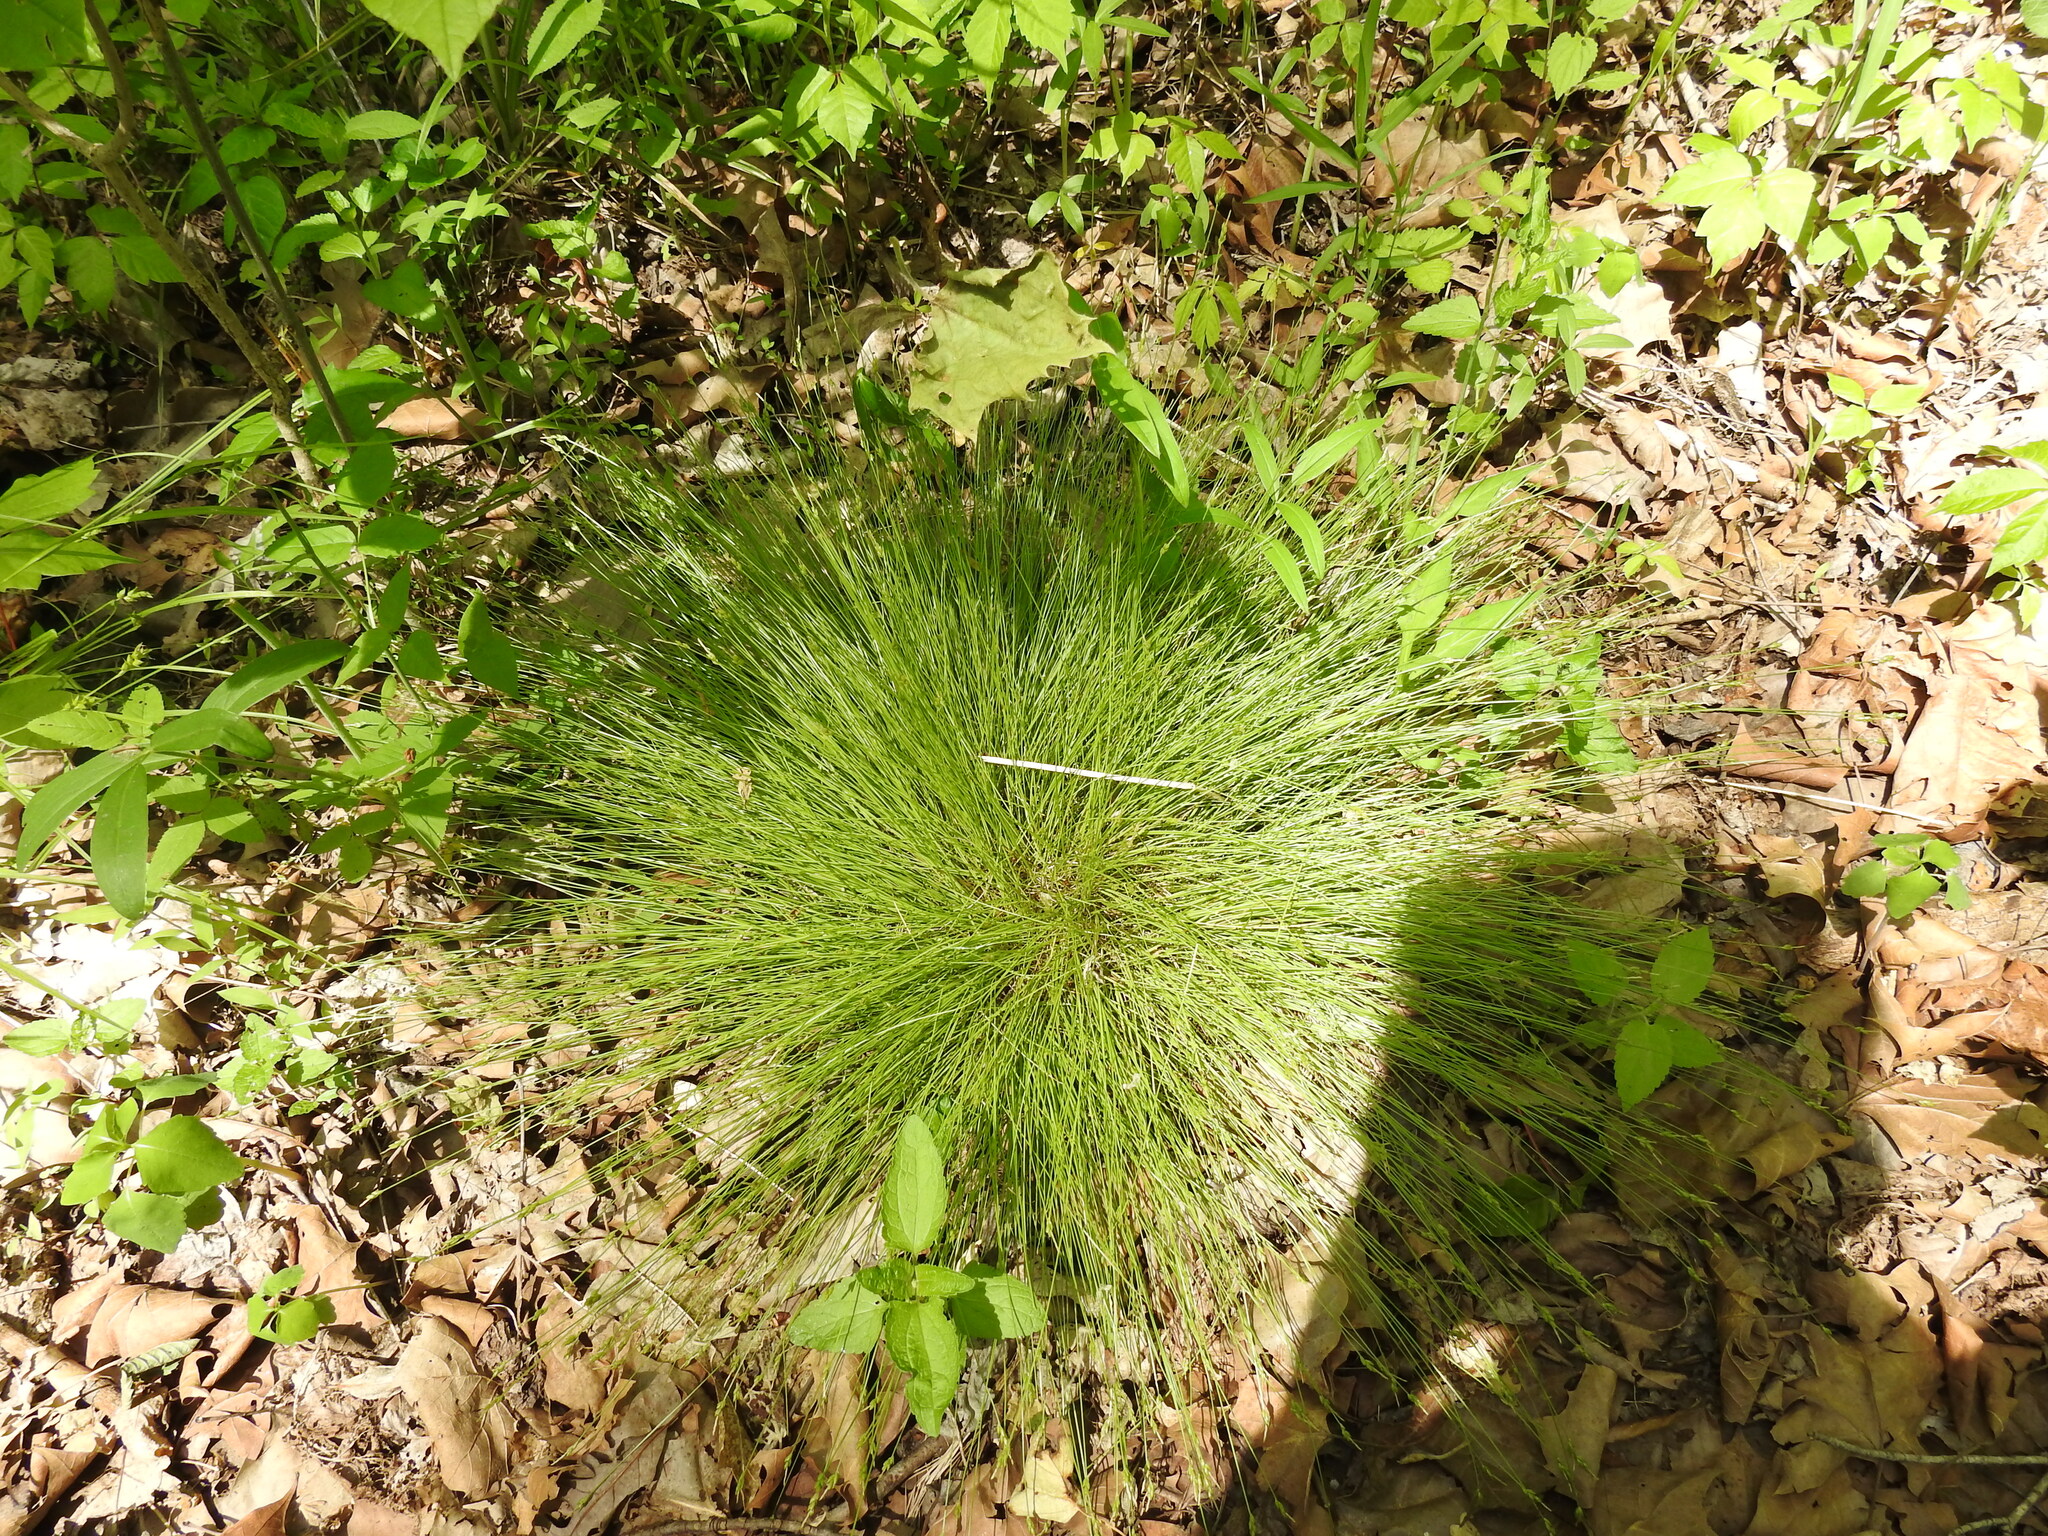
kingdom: Plantae
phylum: Tracheophyta
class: Liliopsida
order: Poales
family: Cyperaceae
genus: Carex
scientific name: Carex leptalea
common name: Bristly-stalked sedge
